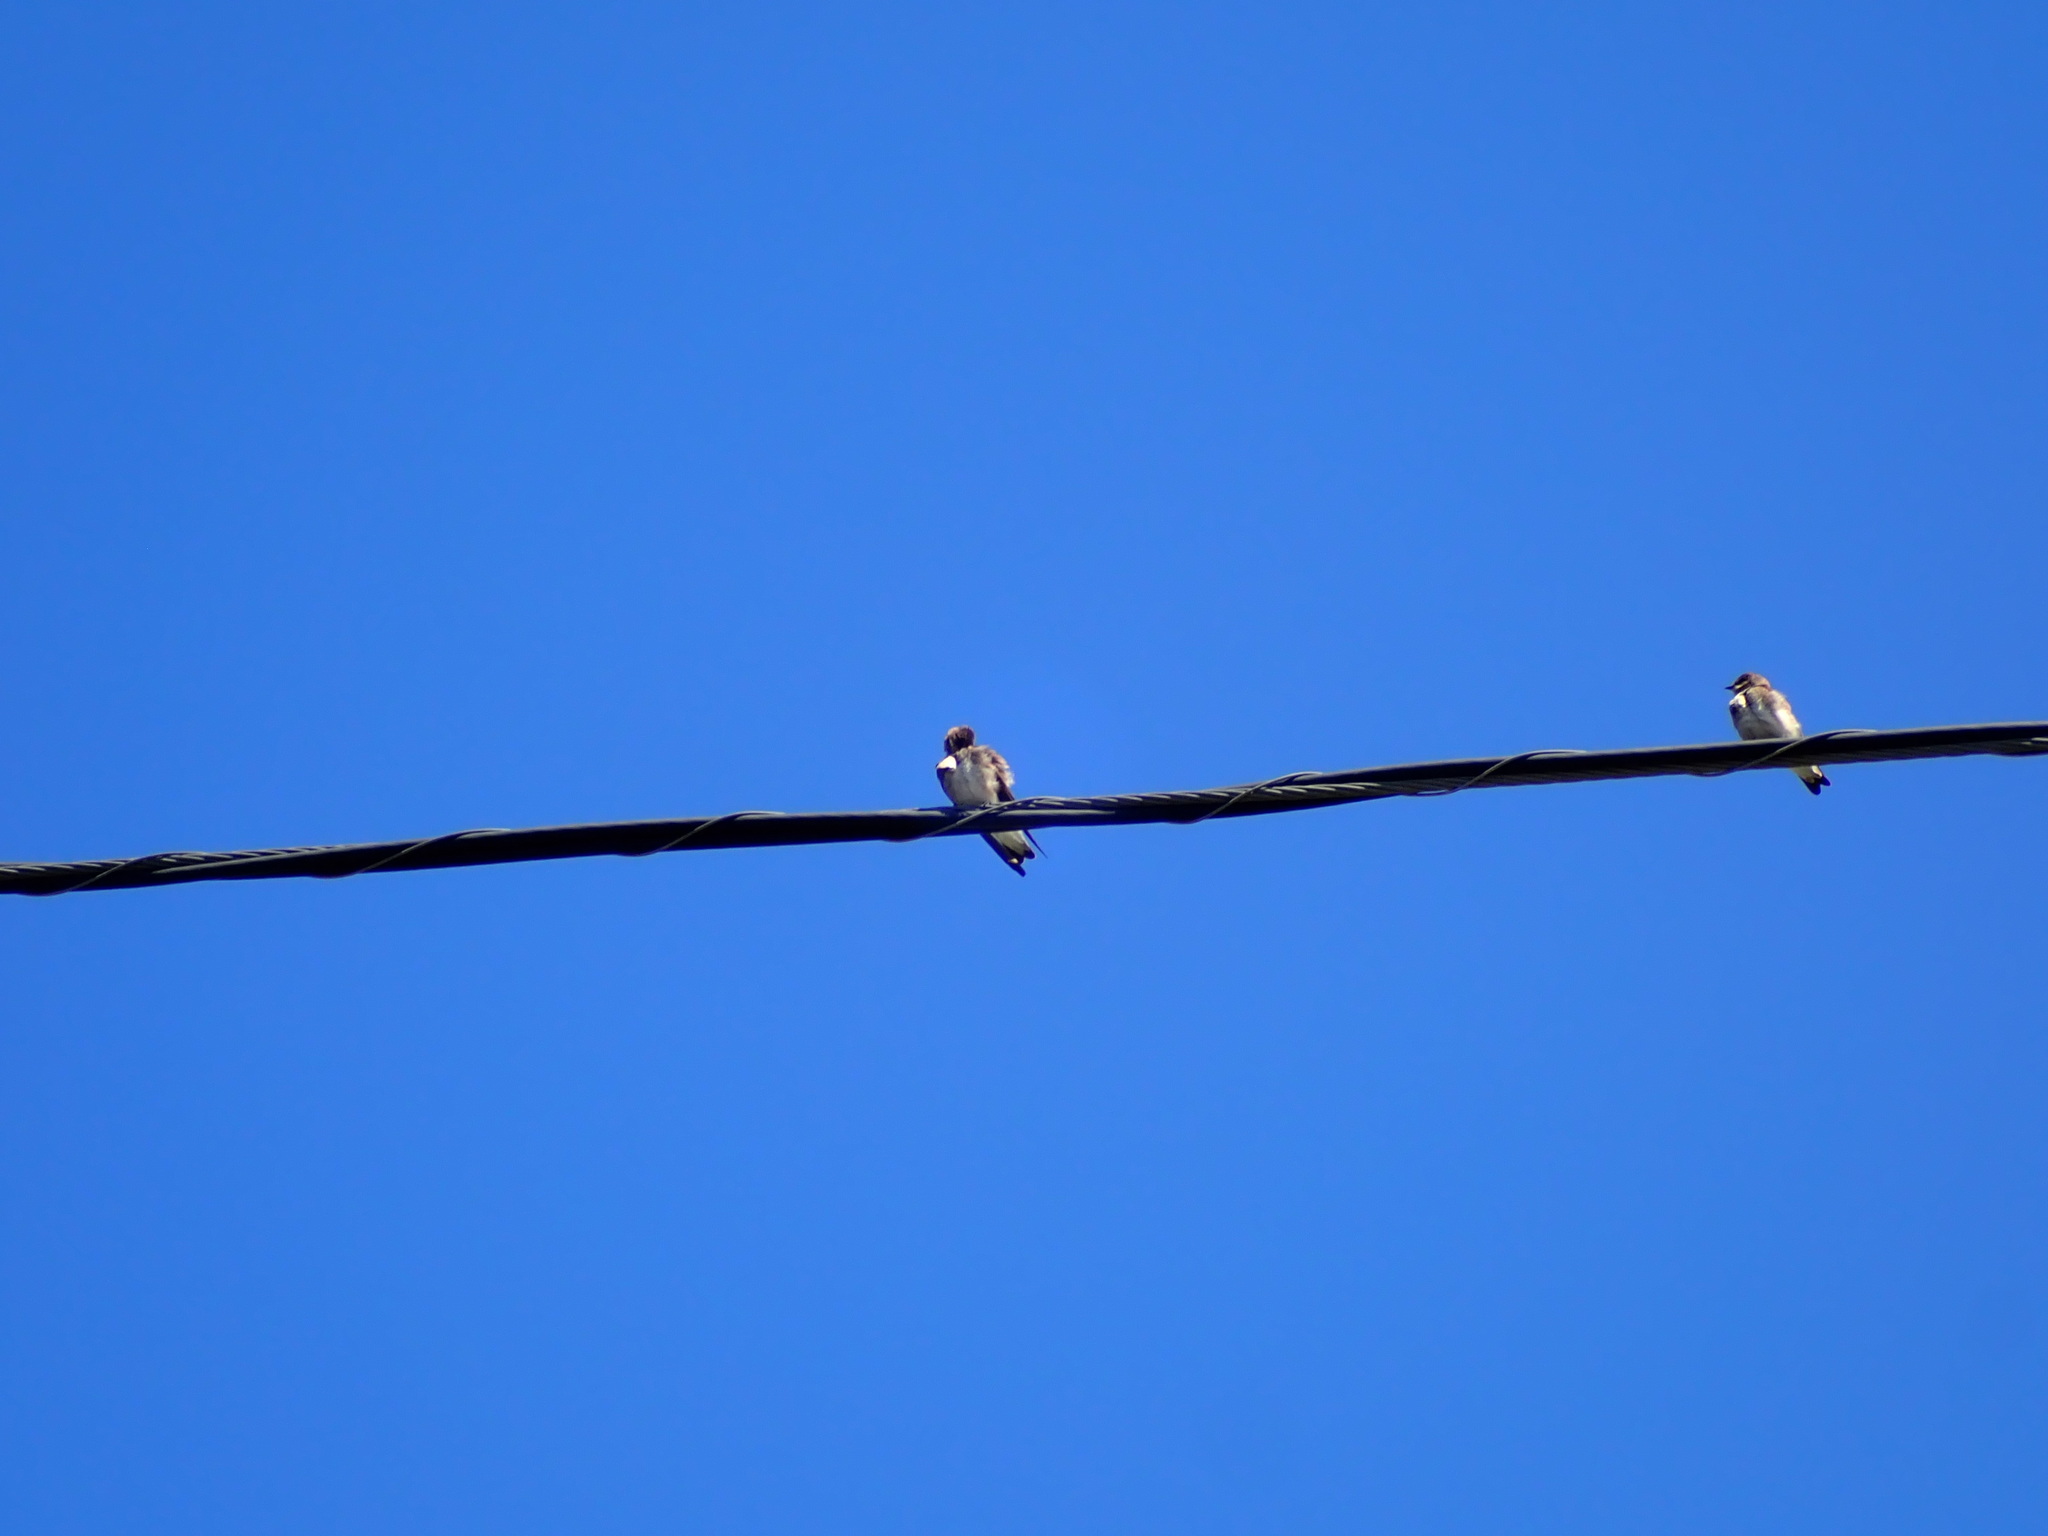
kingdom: Animalia
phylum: Chordata
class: Aves
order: Passeriformes
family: Hirundinidae
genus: Stelgidopteryx
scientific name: Stelgidopteryx serripennis
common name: Northern rough-winged swallow
